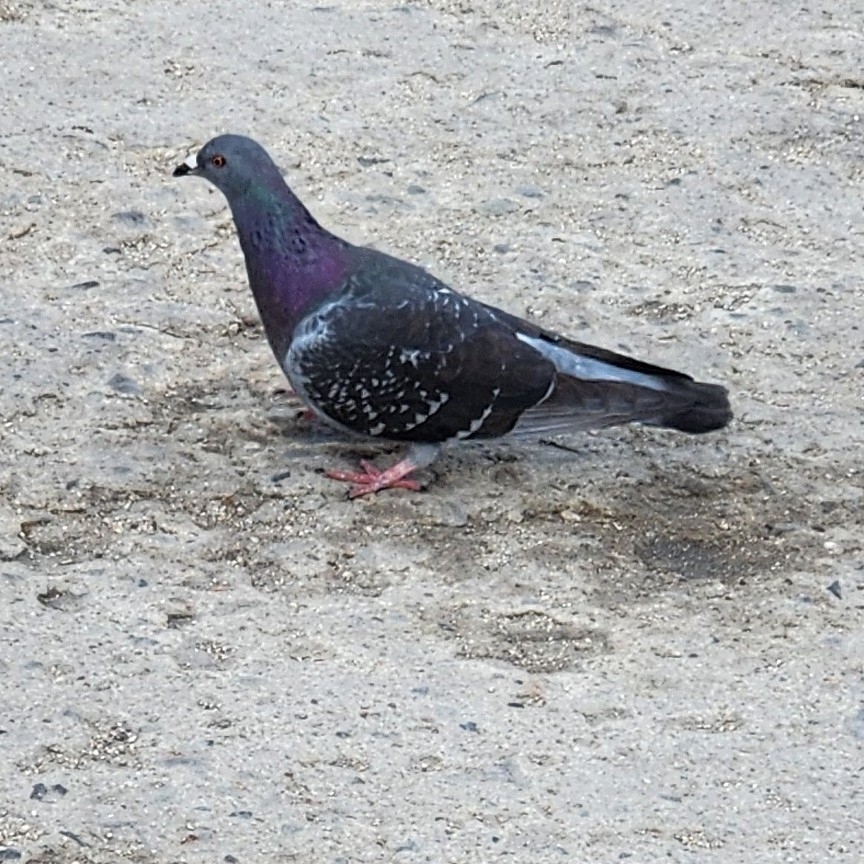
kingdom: Animalia
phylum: Chordata
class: Aves
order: Columbiformes
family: Columbidae
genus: Columba
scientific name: Columba livia
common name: Rock pigeon
